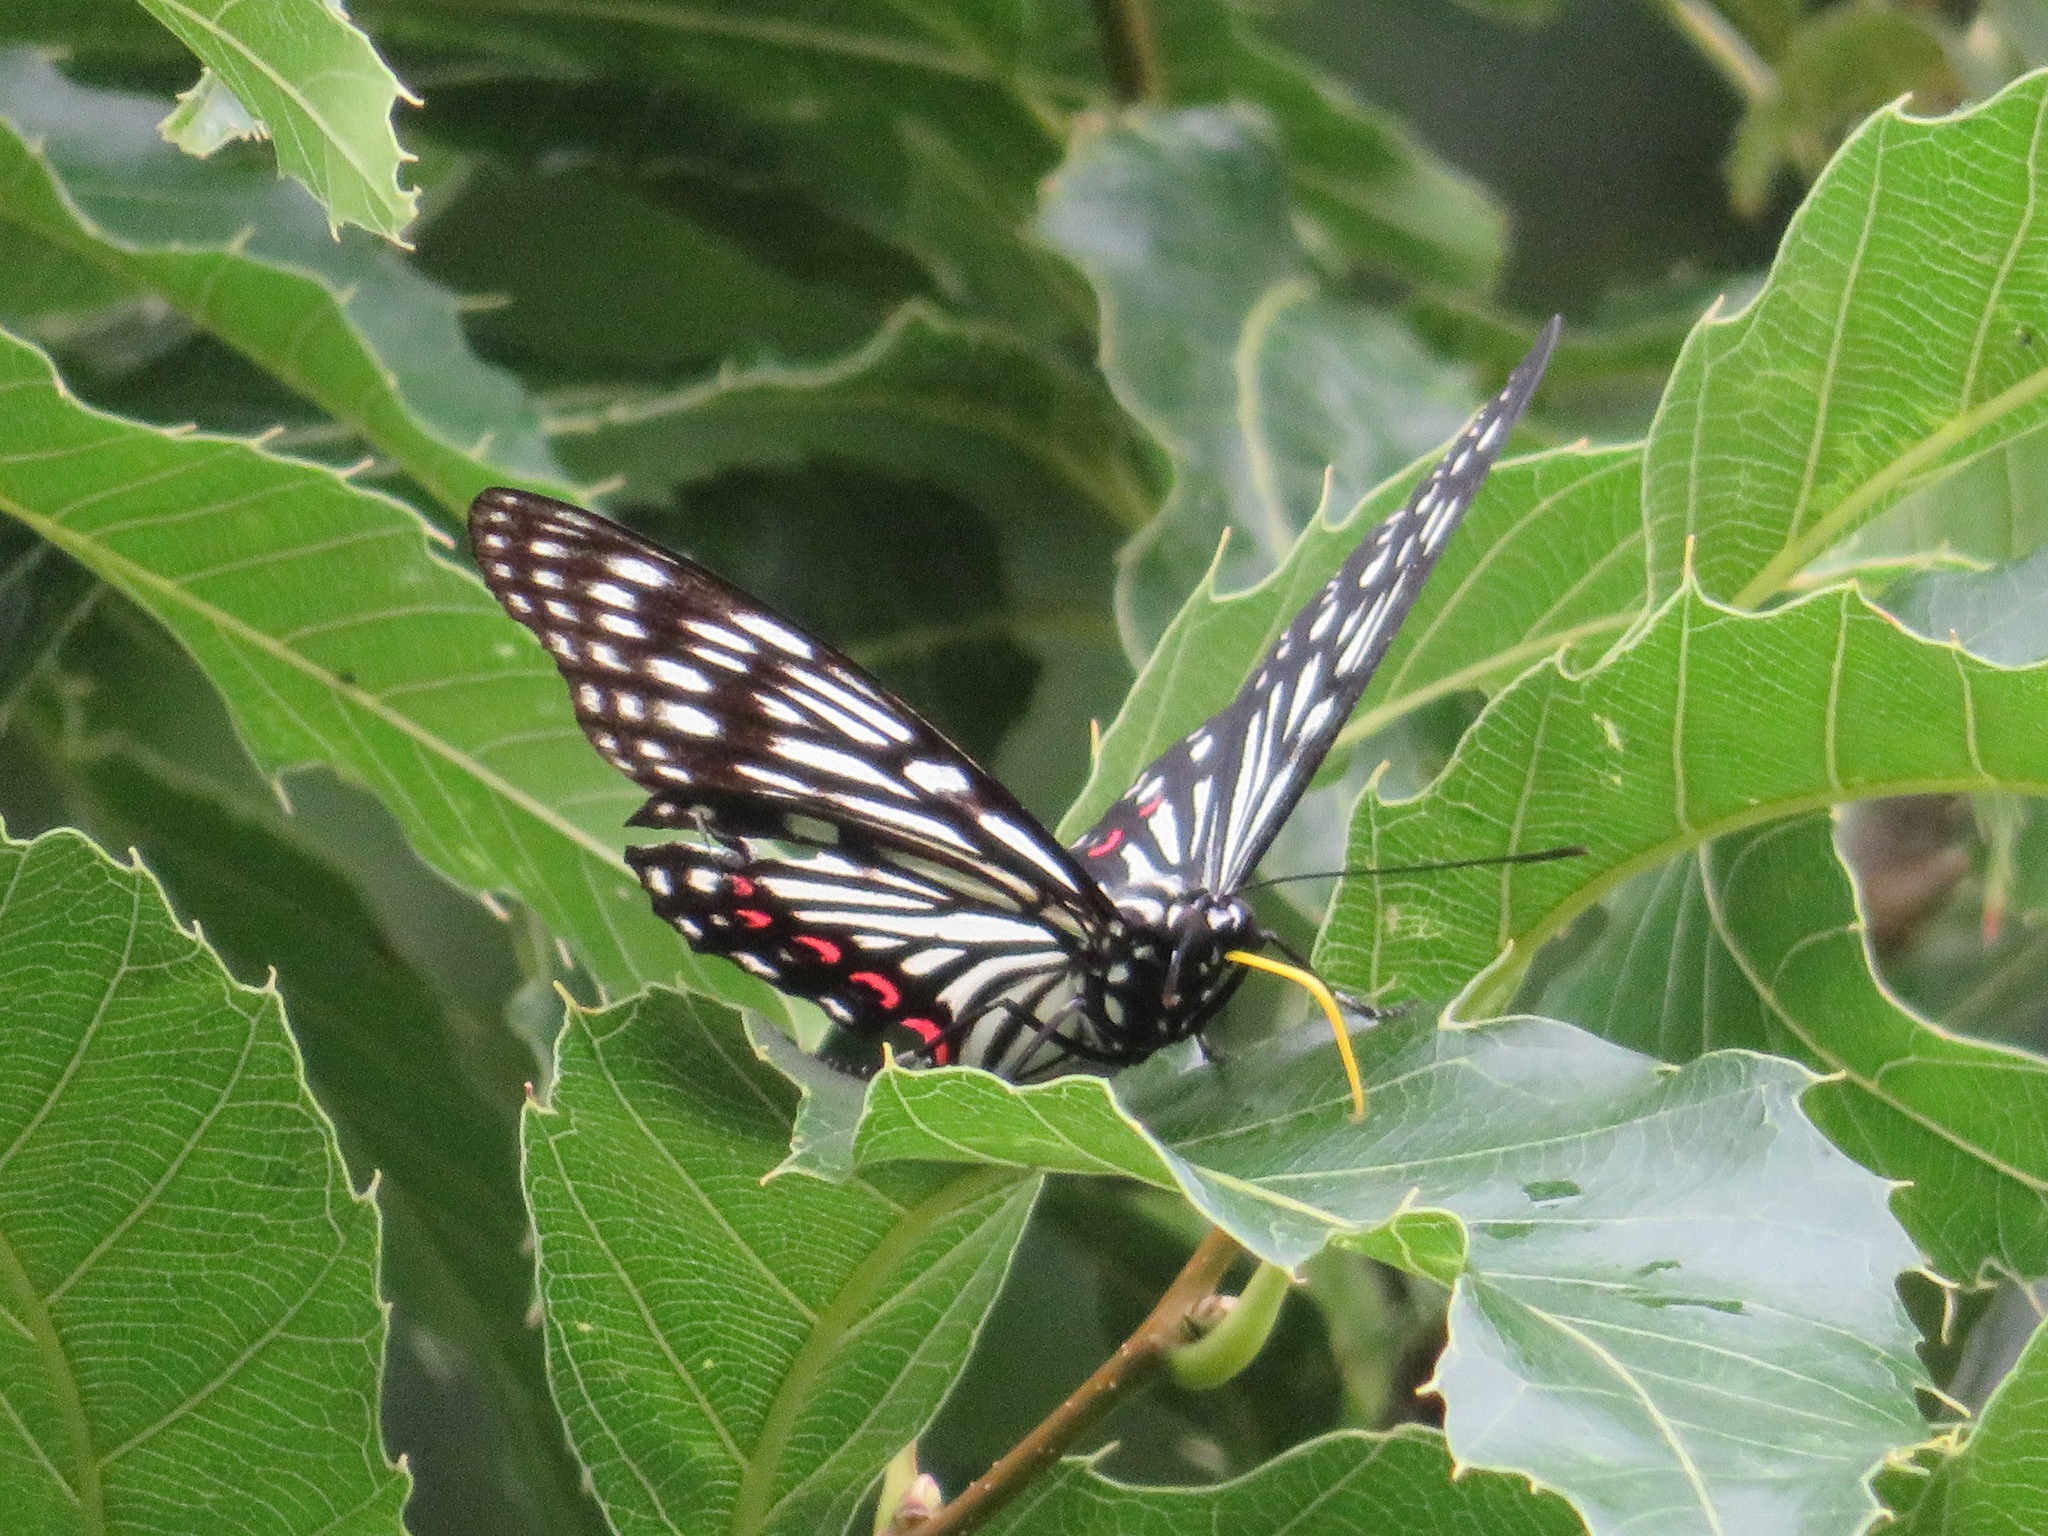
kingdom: Animalia
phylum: Arthropoda
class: Insecta
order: Lepidoptera
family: Nymphalidae
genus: Hestina
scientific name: Hestina assimilis
